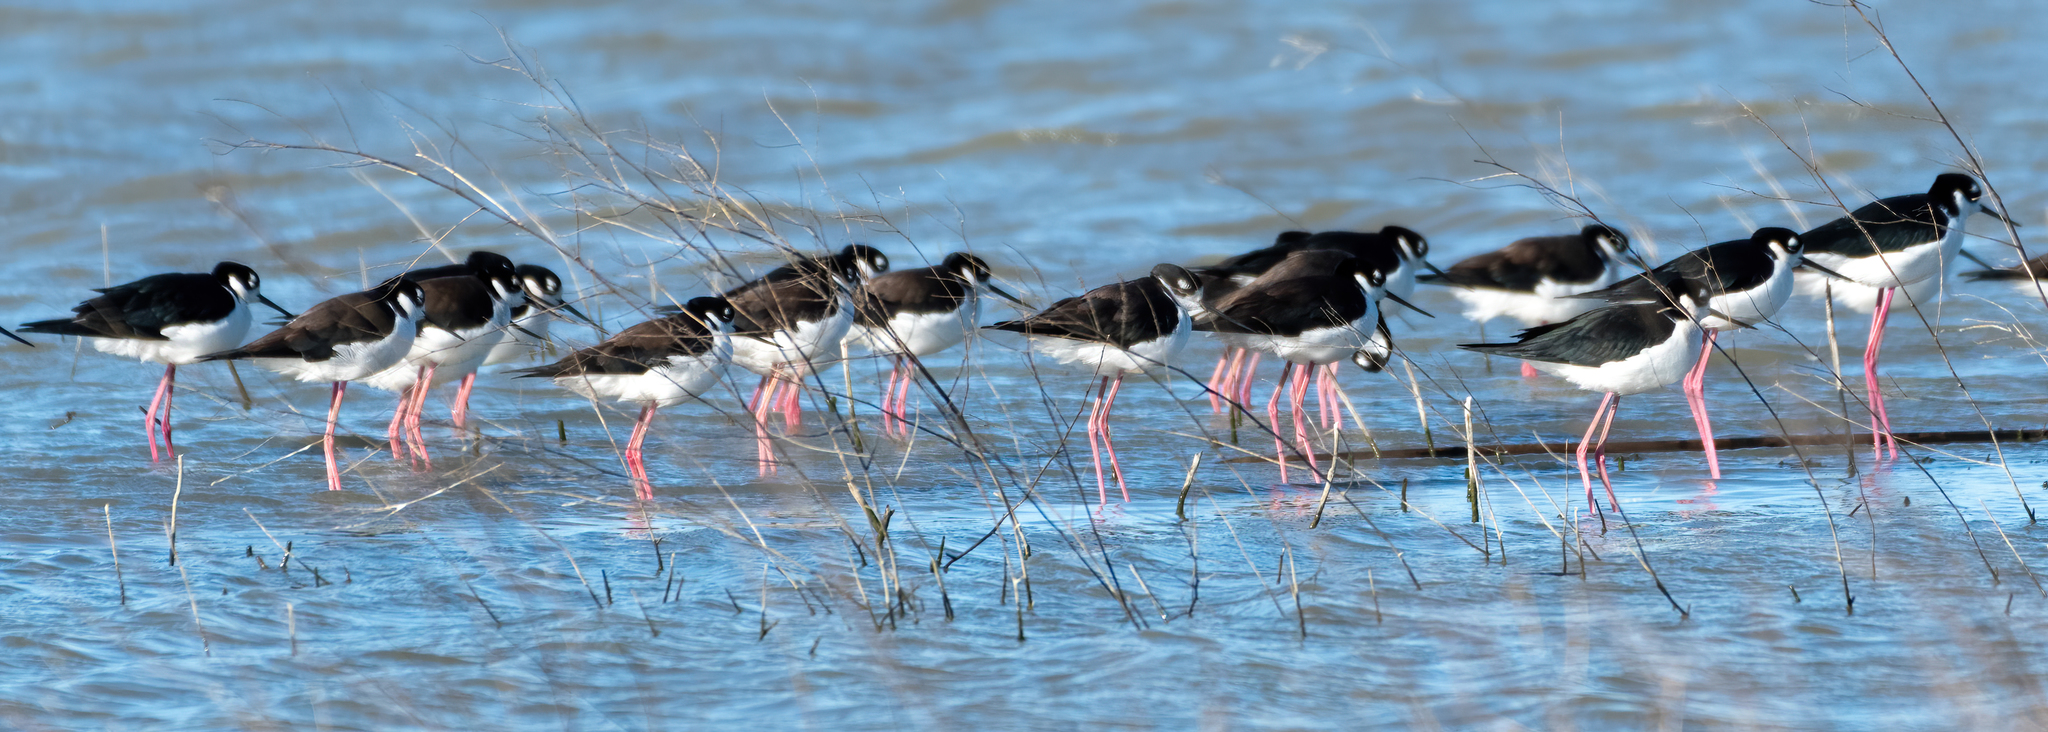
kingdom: Animalia
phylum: Chordata
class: Aves
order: Charadriiformes
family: Recurvirostridae
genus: Himantopus
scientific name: Himantopus mexicanus
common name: Black-necked stilt
